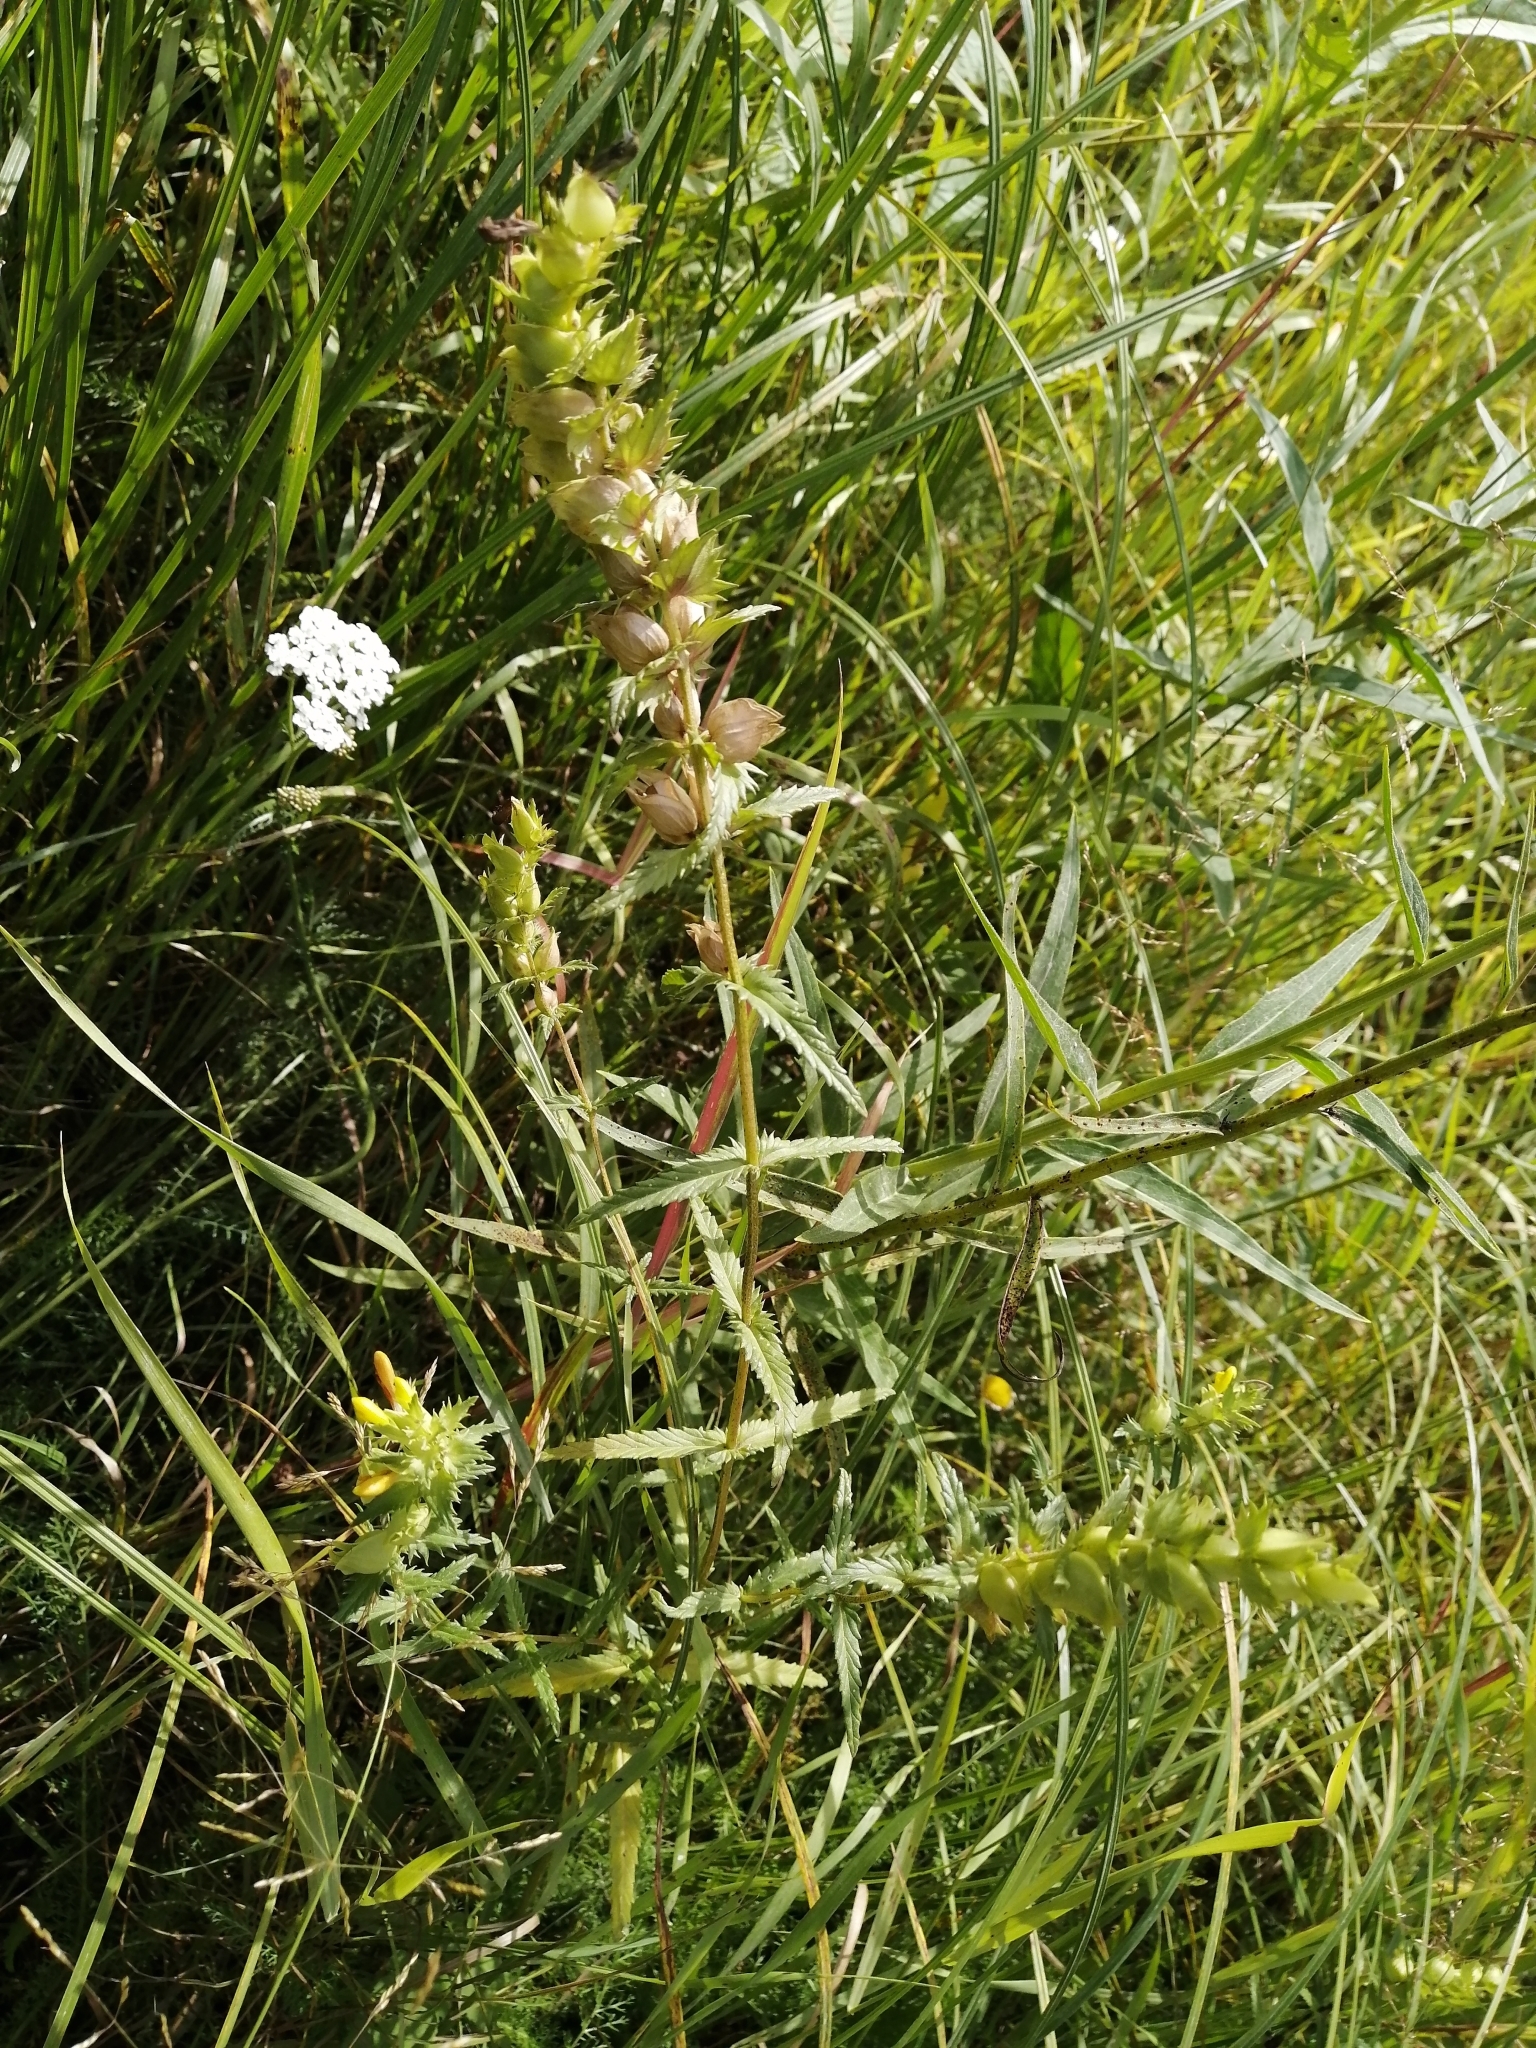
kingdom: Plantae
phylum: Tracheophyta
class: Magnoliopsida
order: Lamiales
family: Orobanchaceae
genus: Rhinanthus
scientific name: Rhinanthus serotinus
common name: Late-flowering yellow rattle
